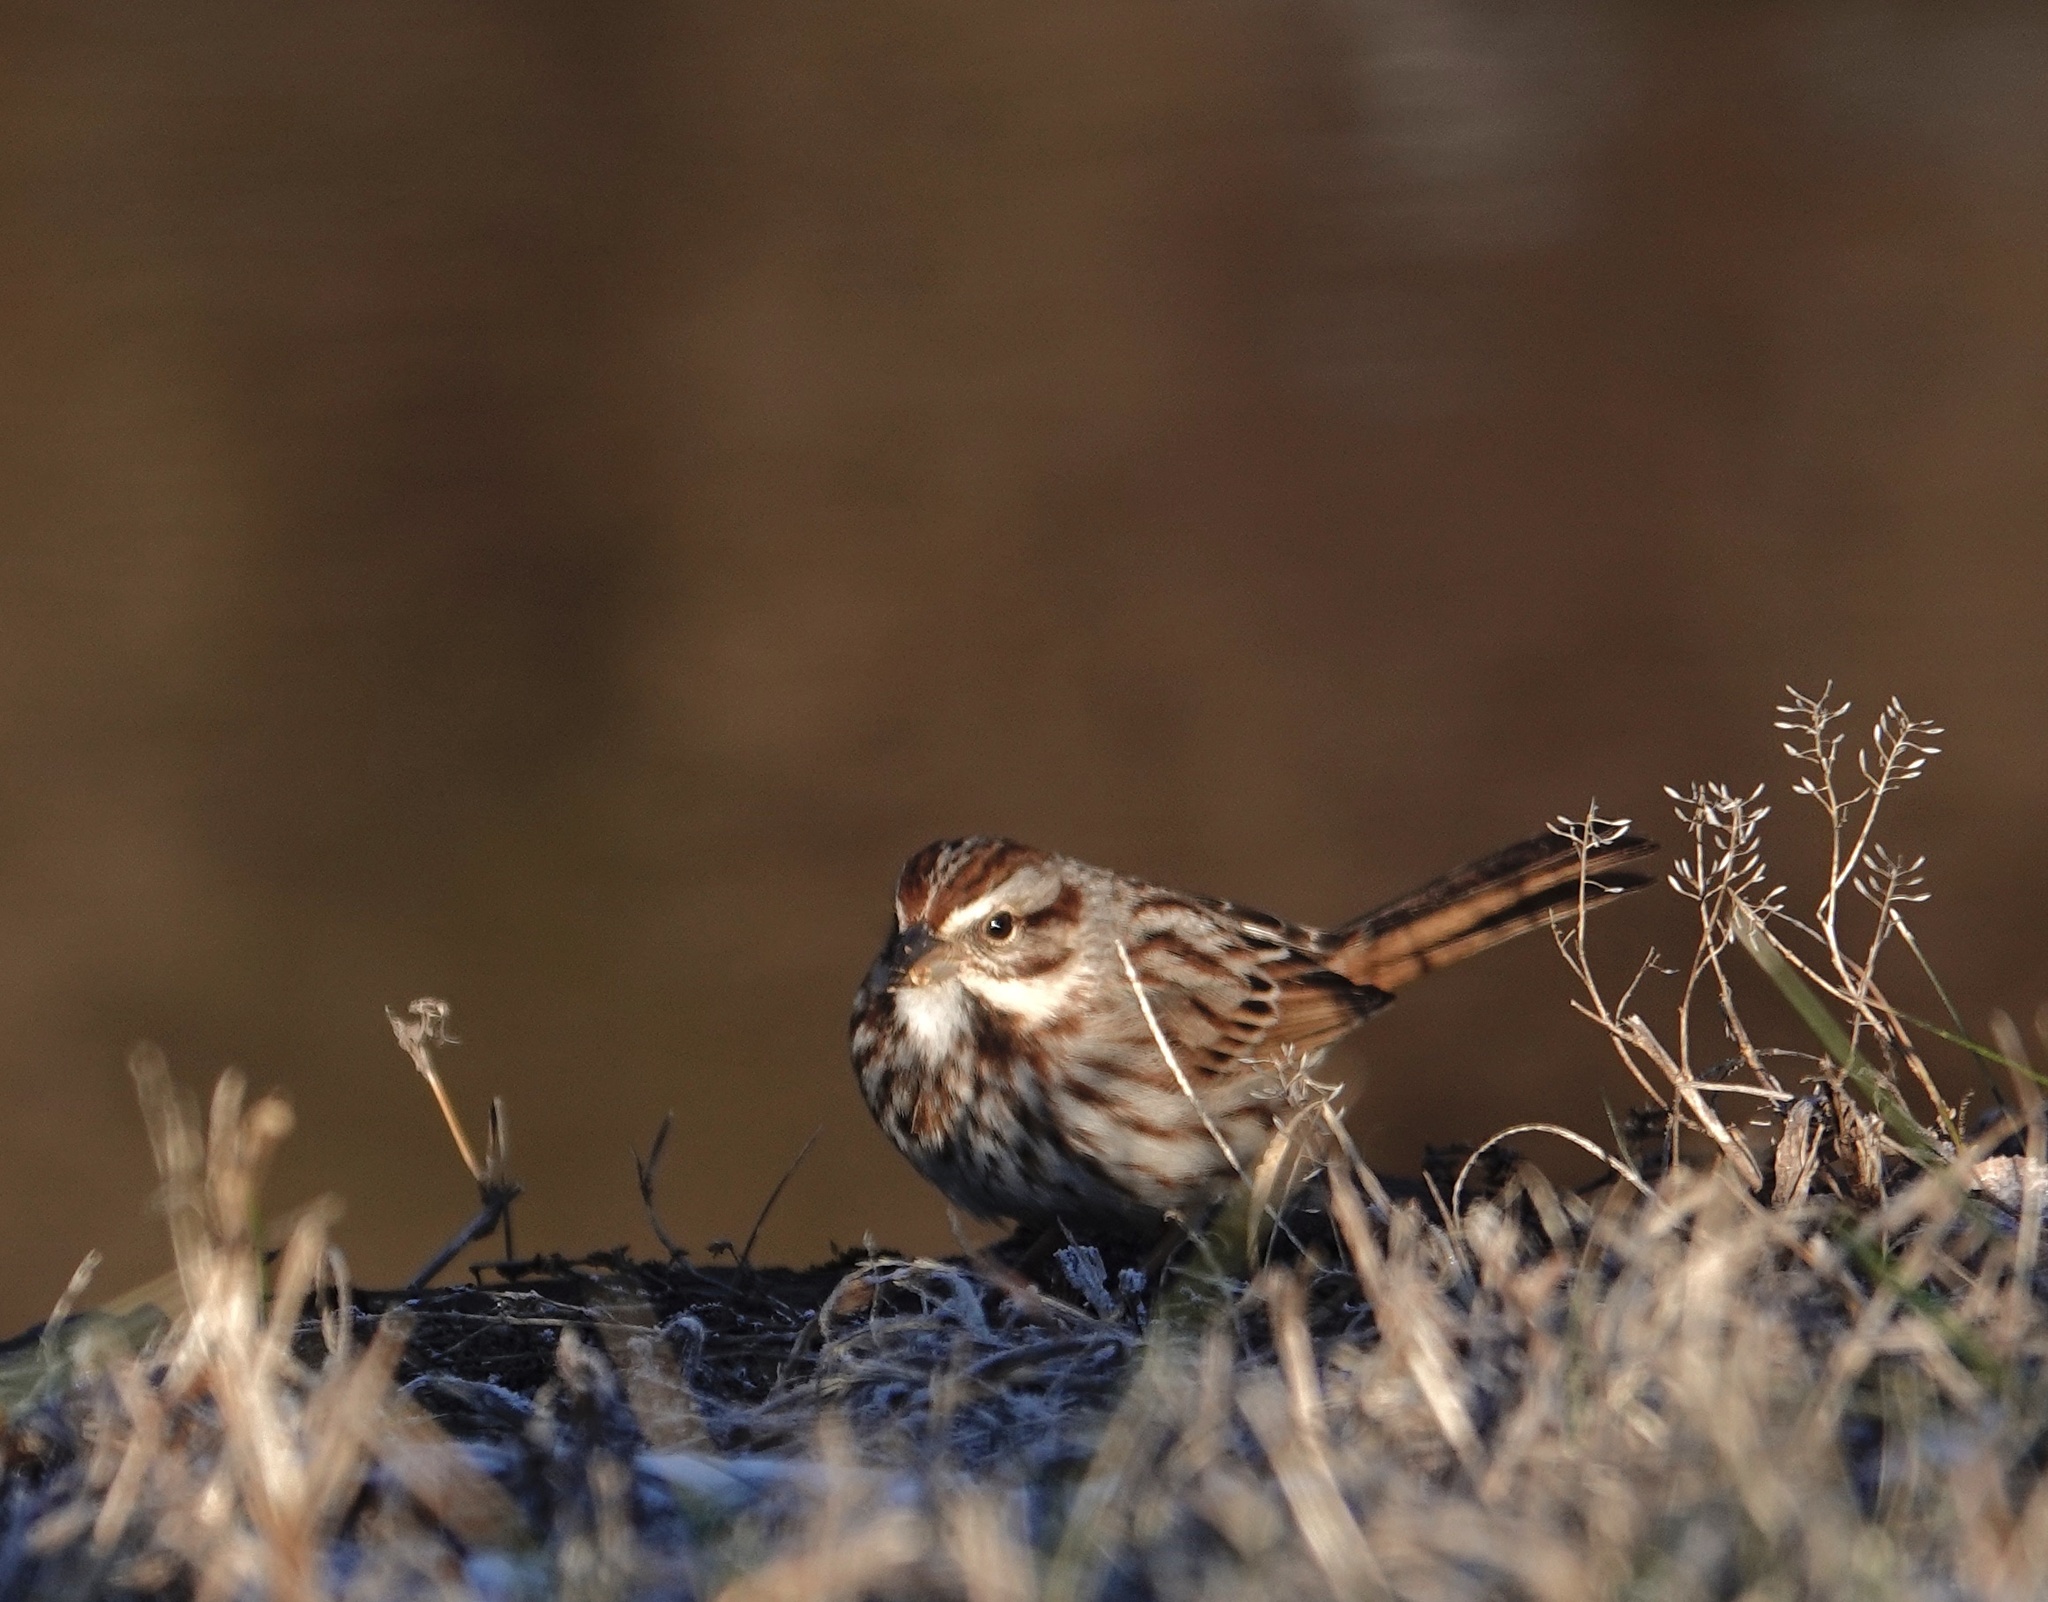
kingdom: Animalia
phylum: Chordata
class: Aves
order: Passeriformes
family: Passerellidae
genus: Melospiza
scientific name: Melospiza melodia
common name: Song sparrow
